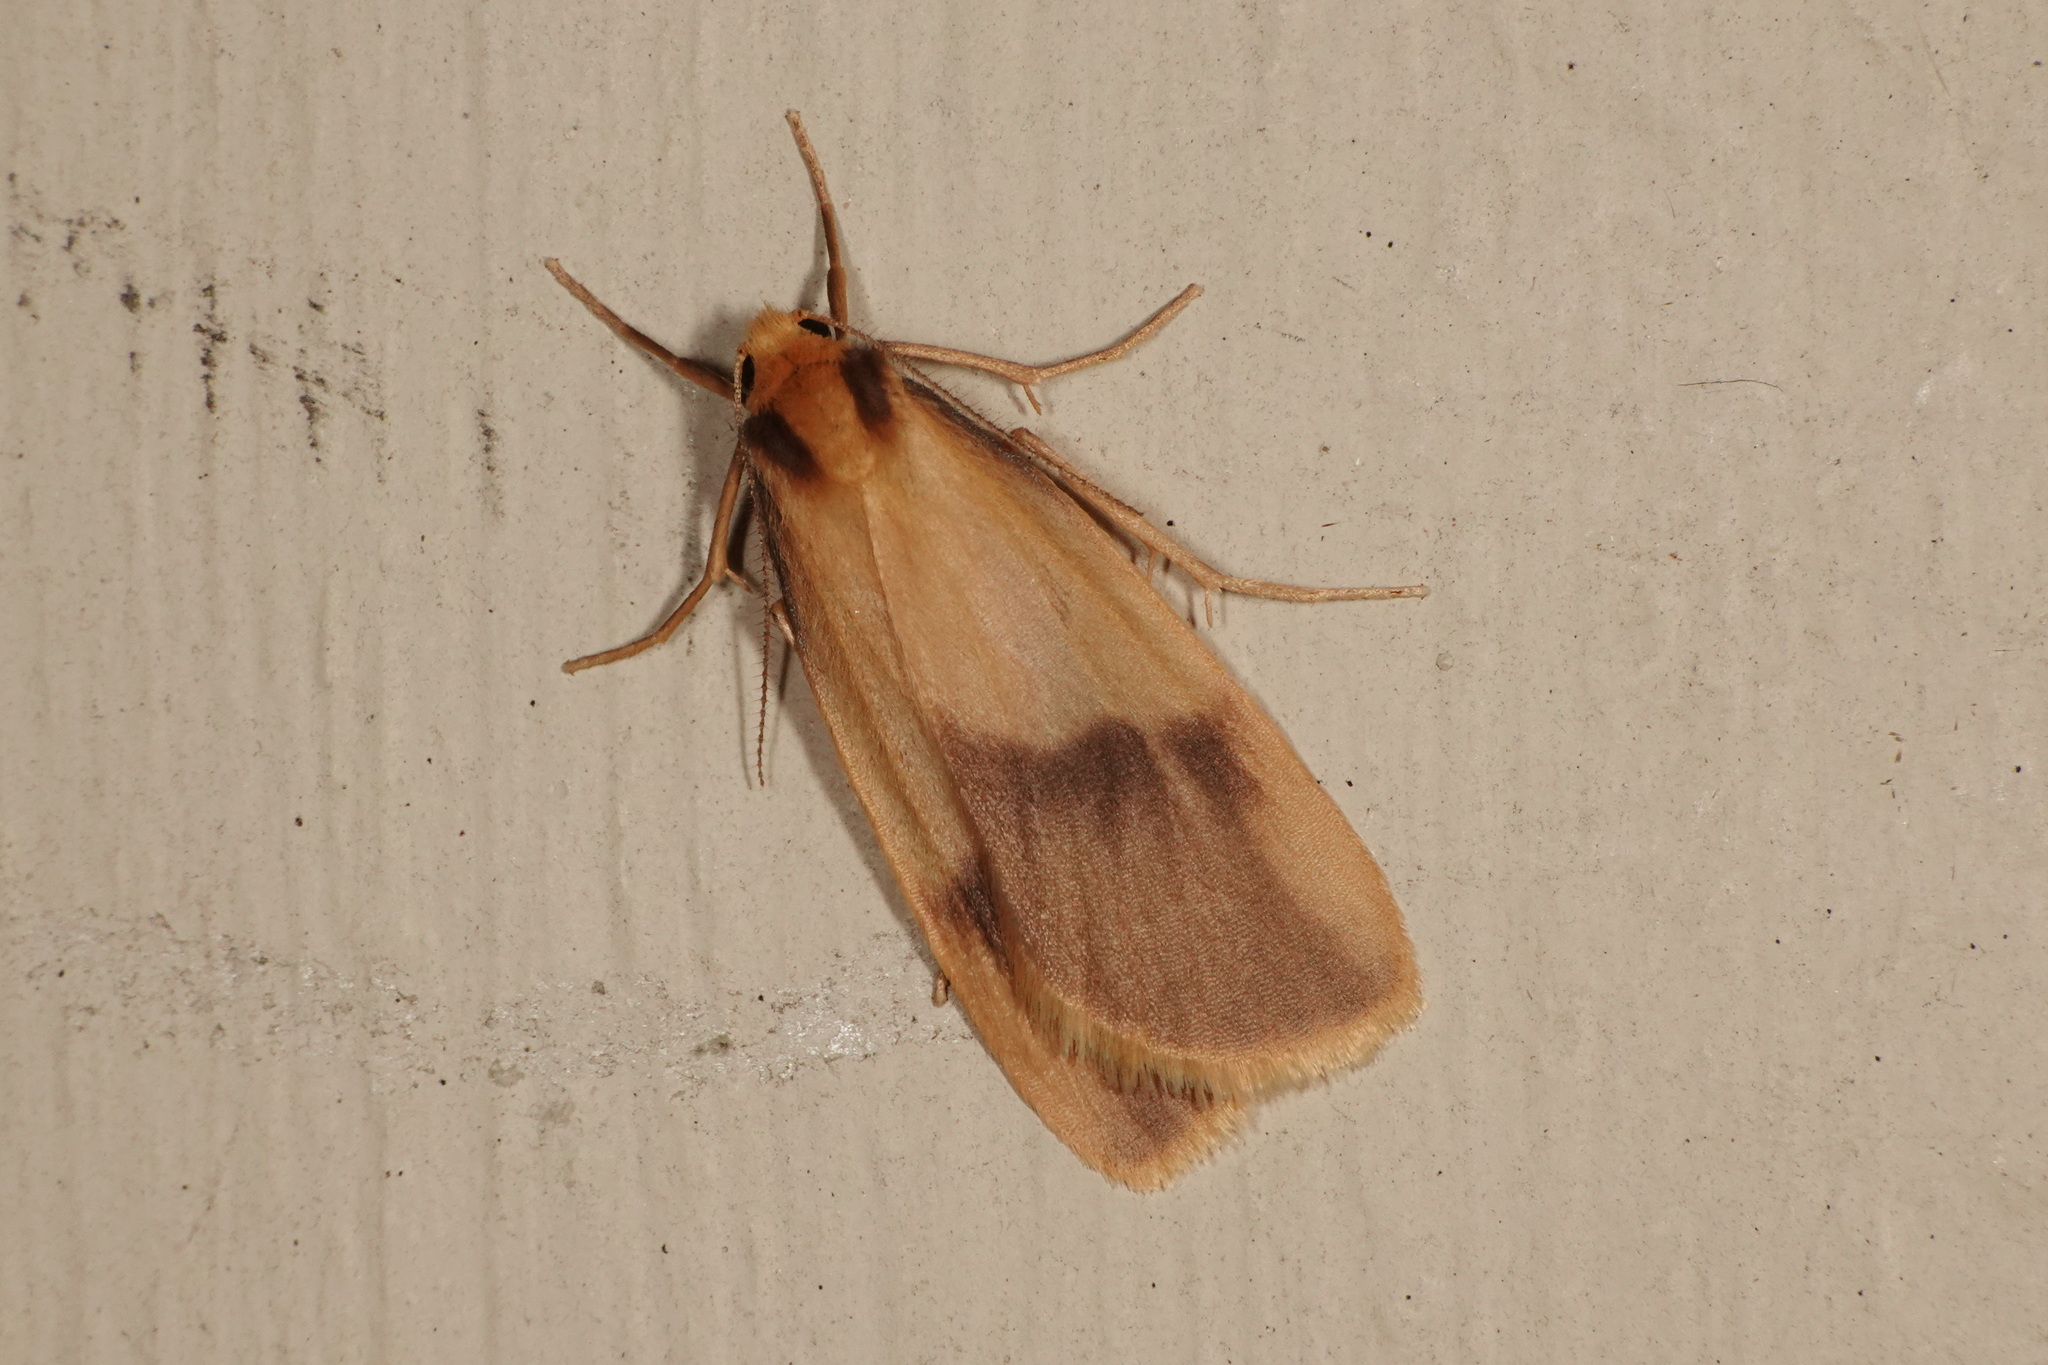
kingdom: Animalia
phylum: Arthropoda
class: Insecta
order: Lepidoptera
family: Erebidae
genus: Threnosia
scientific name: Threnosia heminephes
